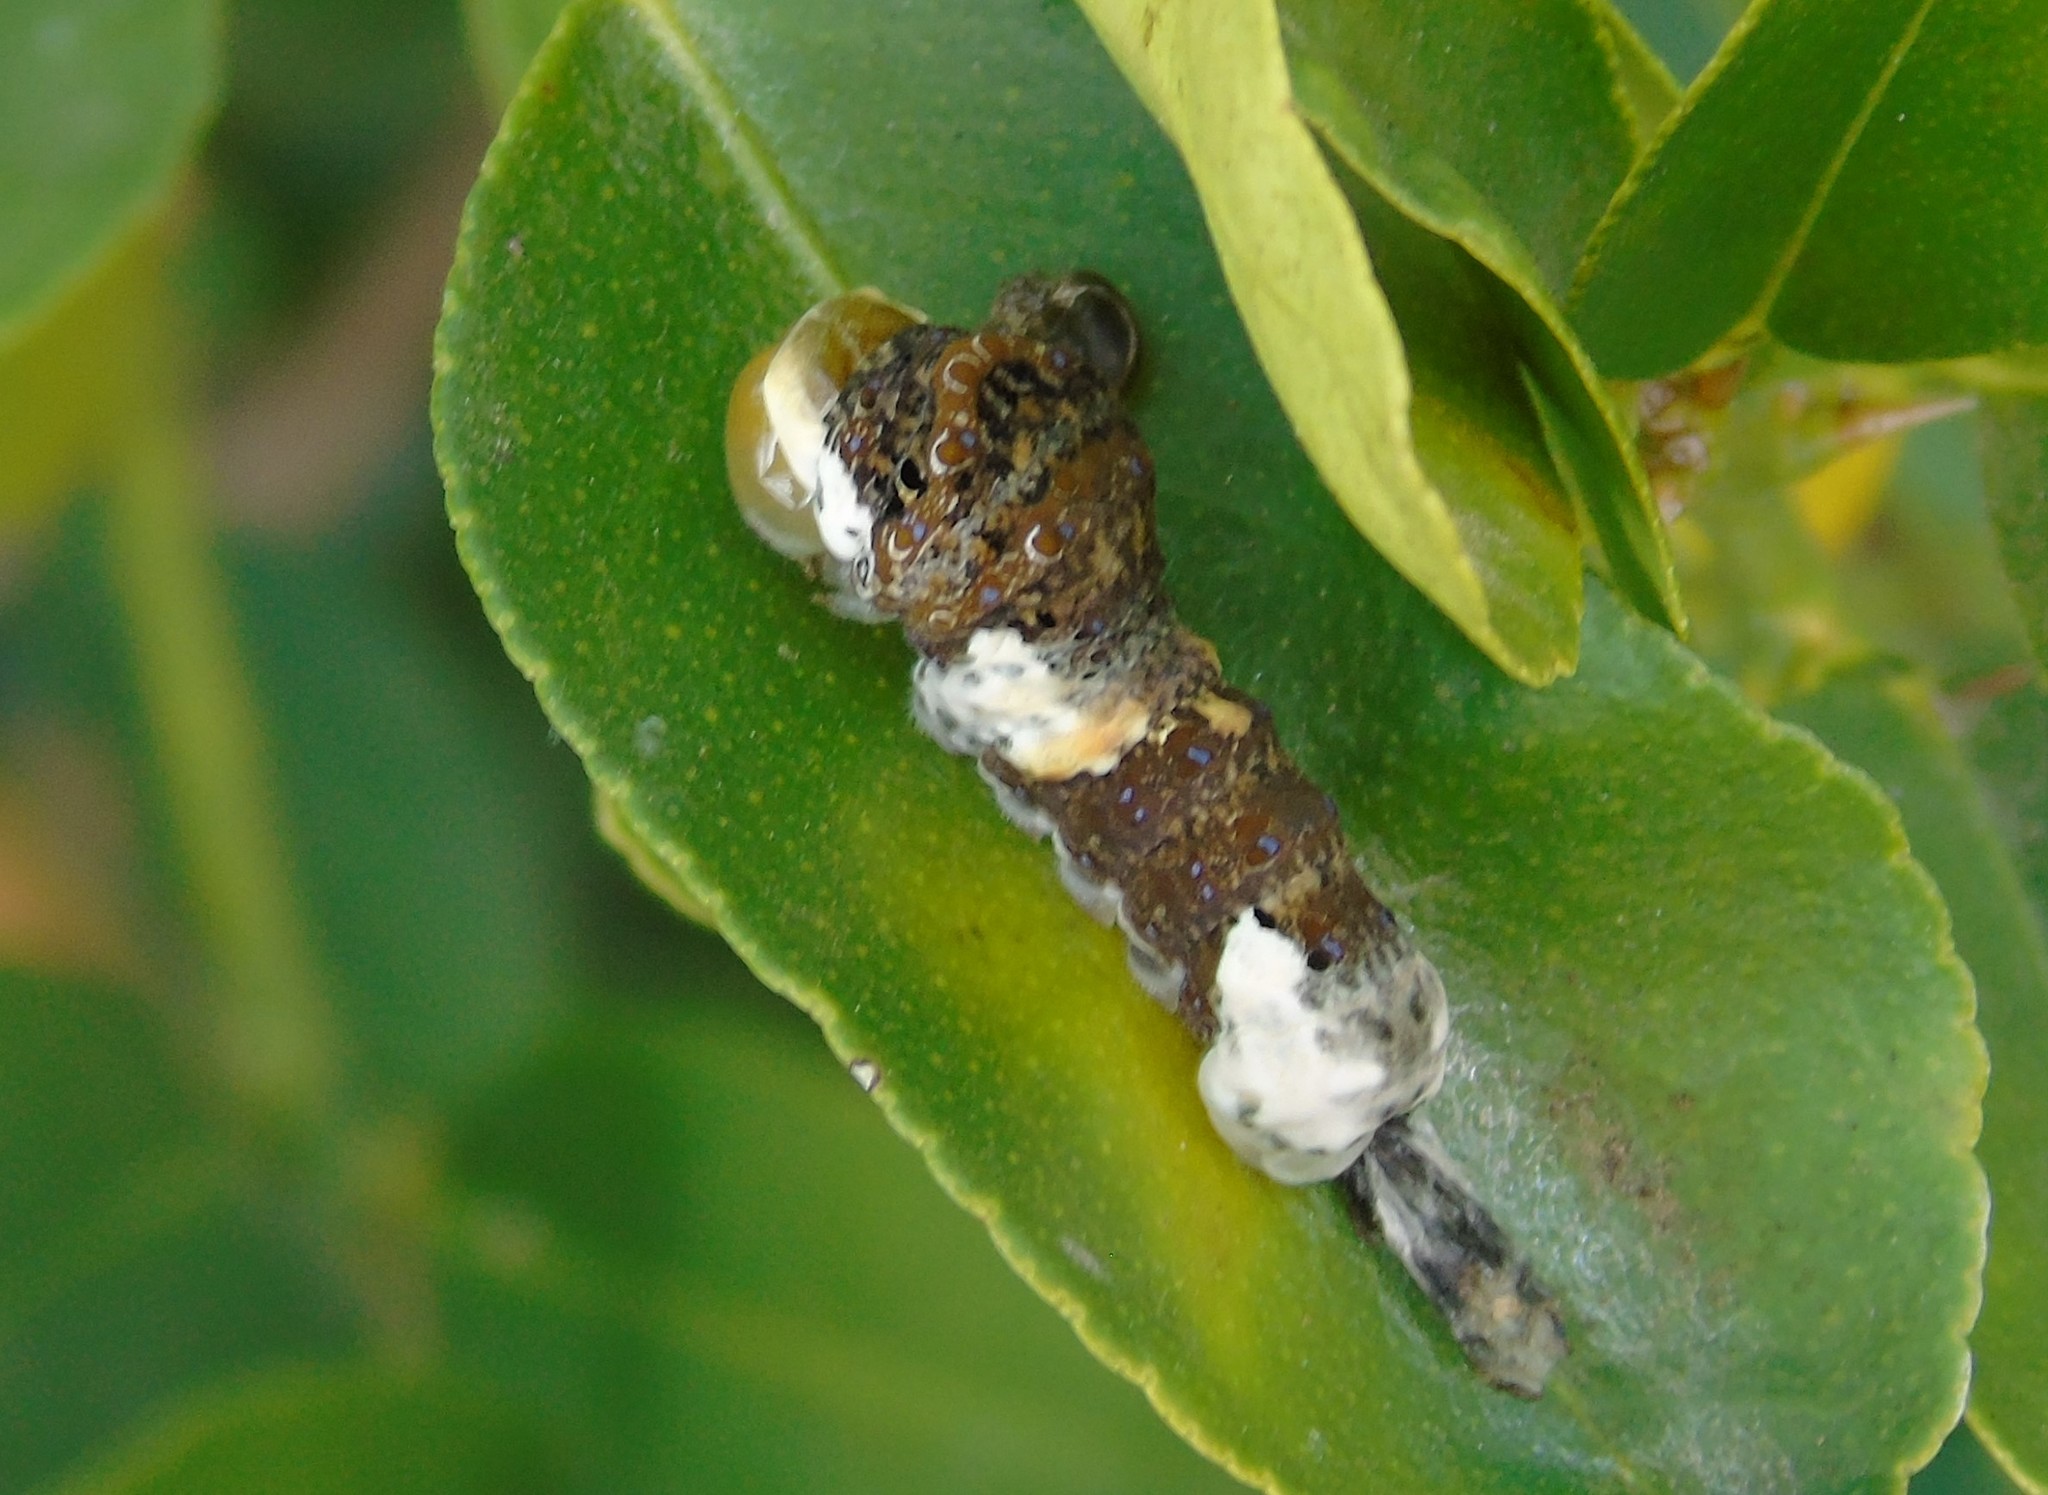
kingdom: Animalia
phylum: Arthropoda
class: Insecta
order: Lepidoptera
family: Papilionidae
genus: Papilio
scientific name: Papilio
